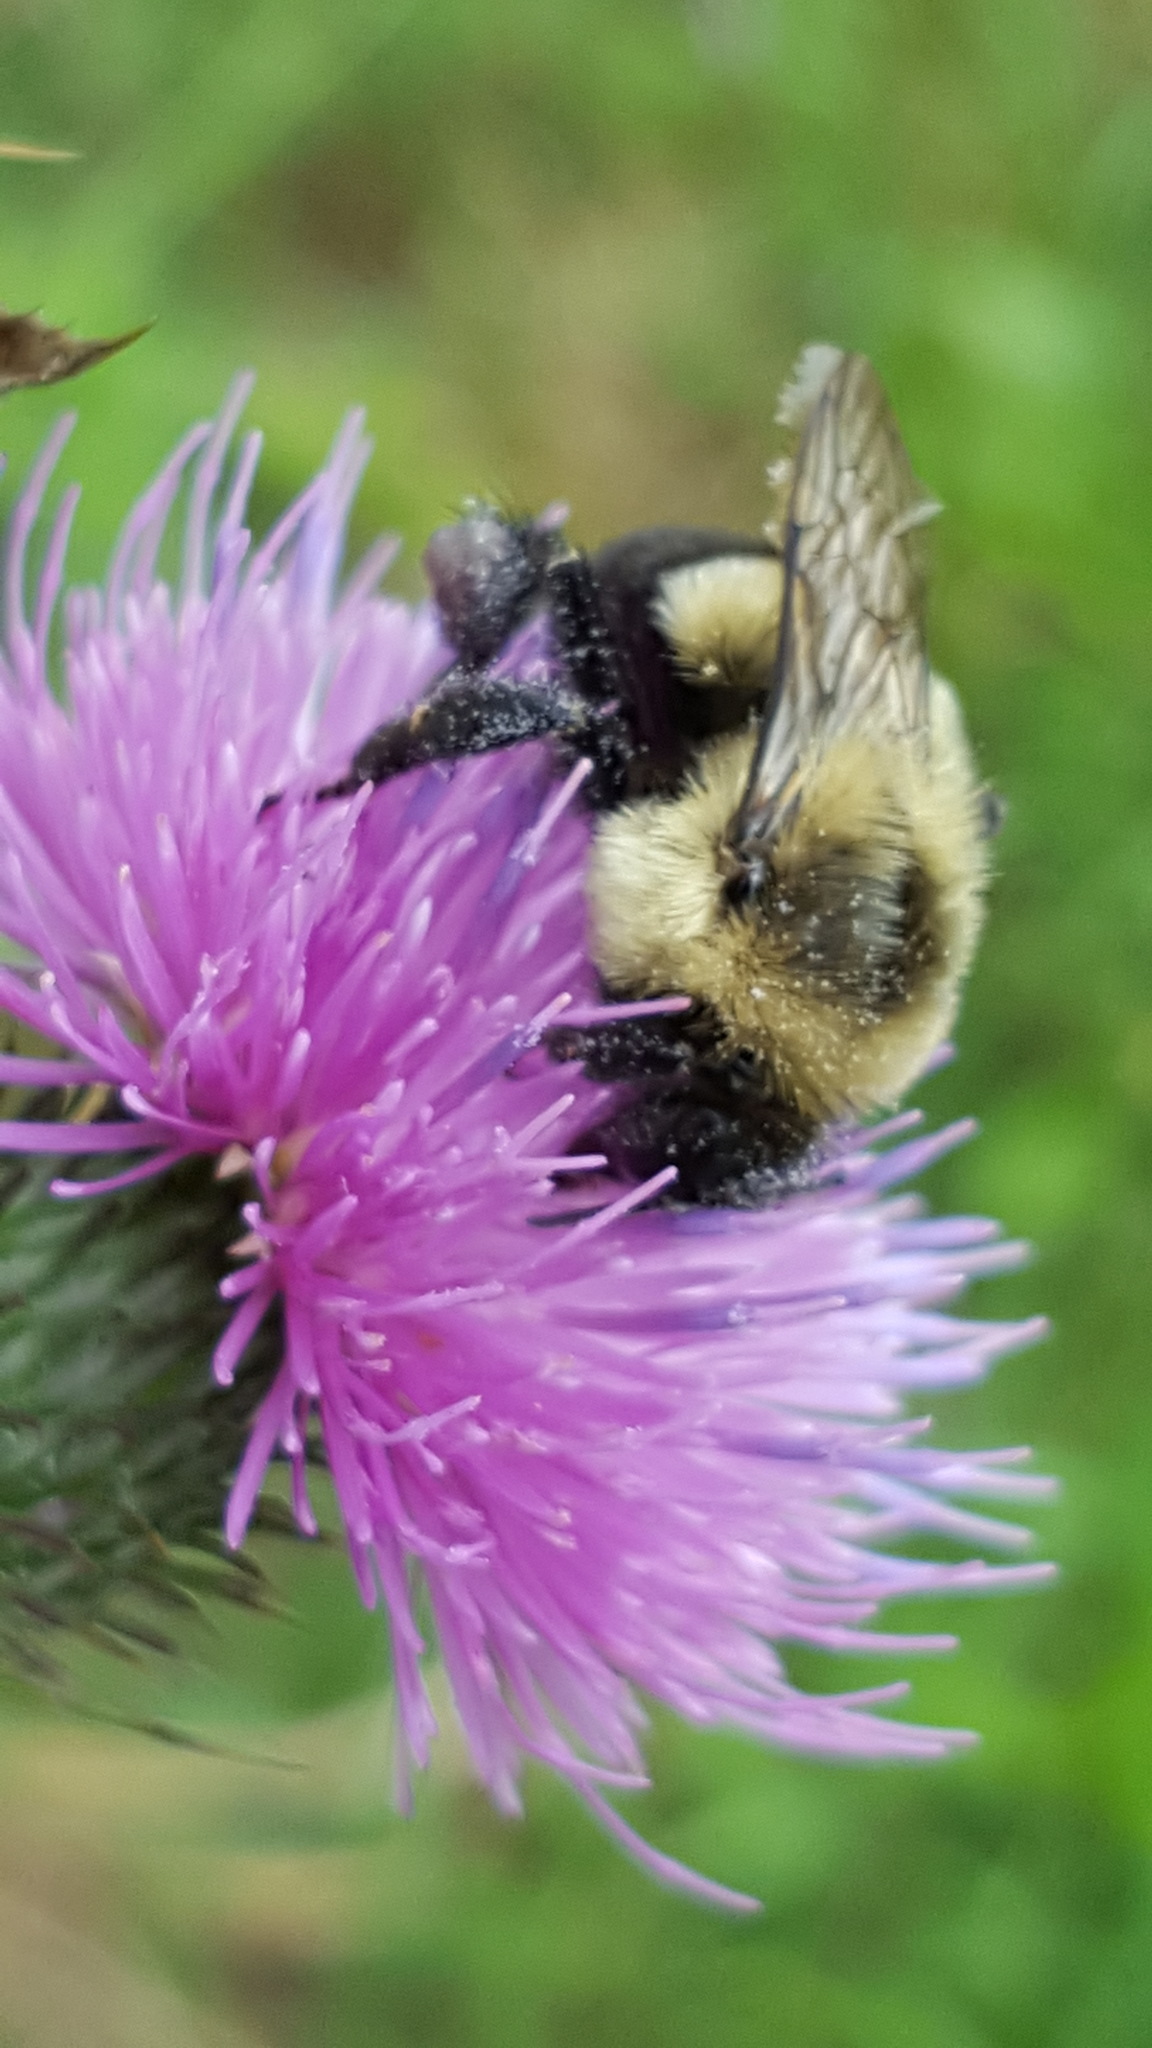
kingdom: Animalia
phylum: Arthropoda
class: Insecta
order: Hymenoptera
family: Apidae
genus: Bombus
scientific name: Bombus impatiens
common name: Common eastern bumble bee
